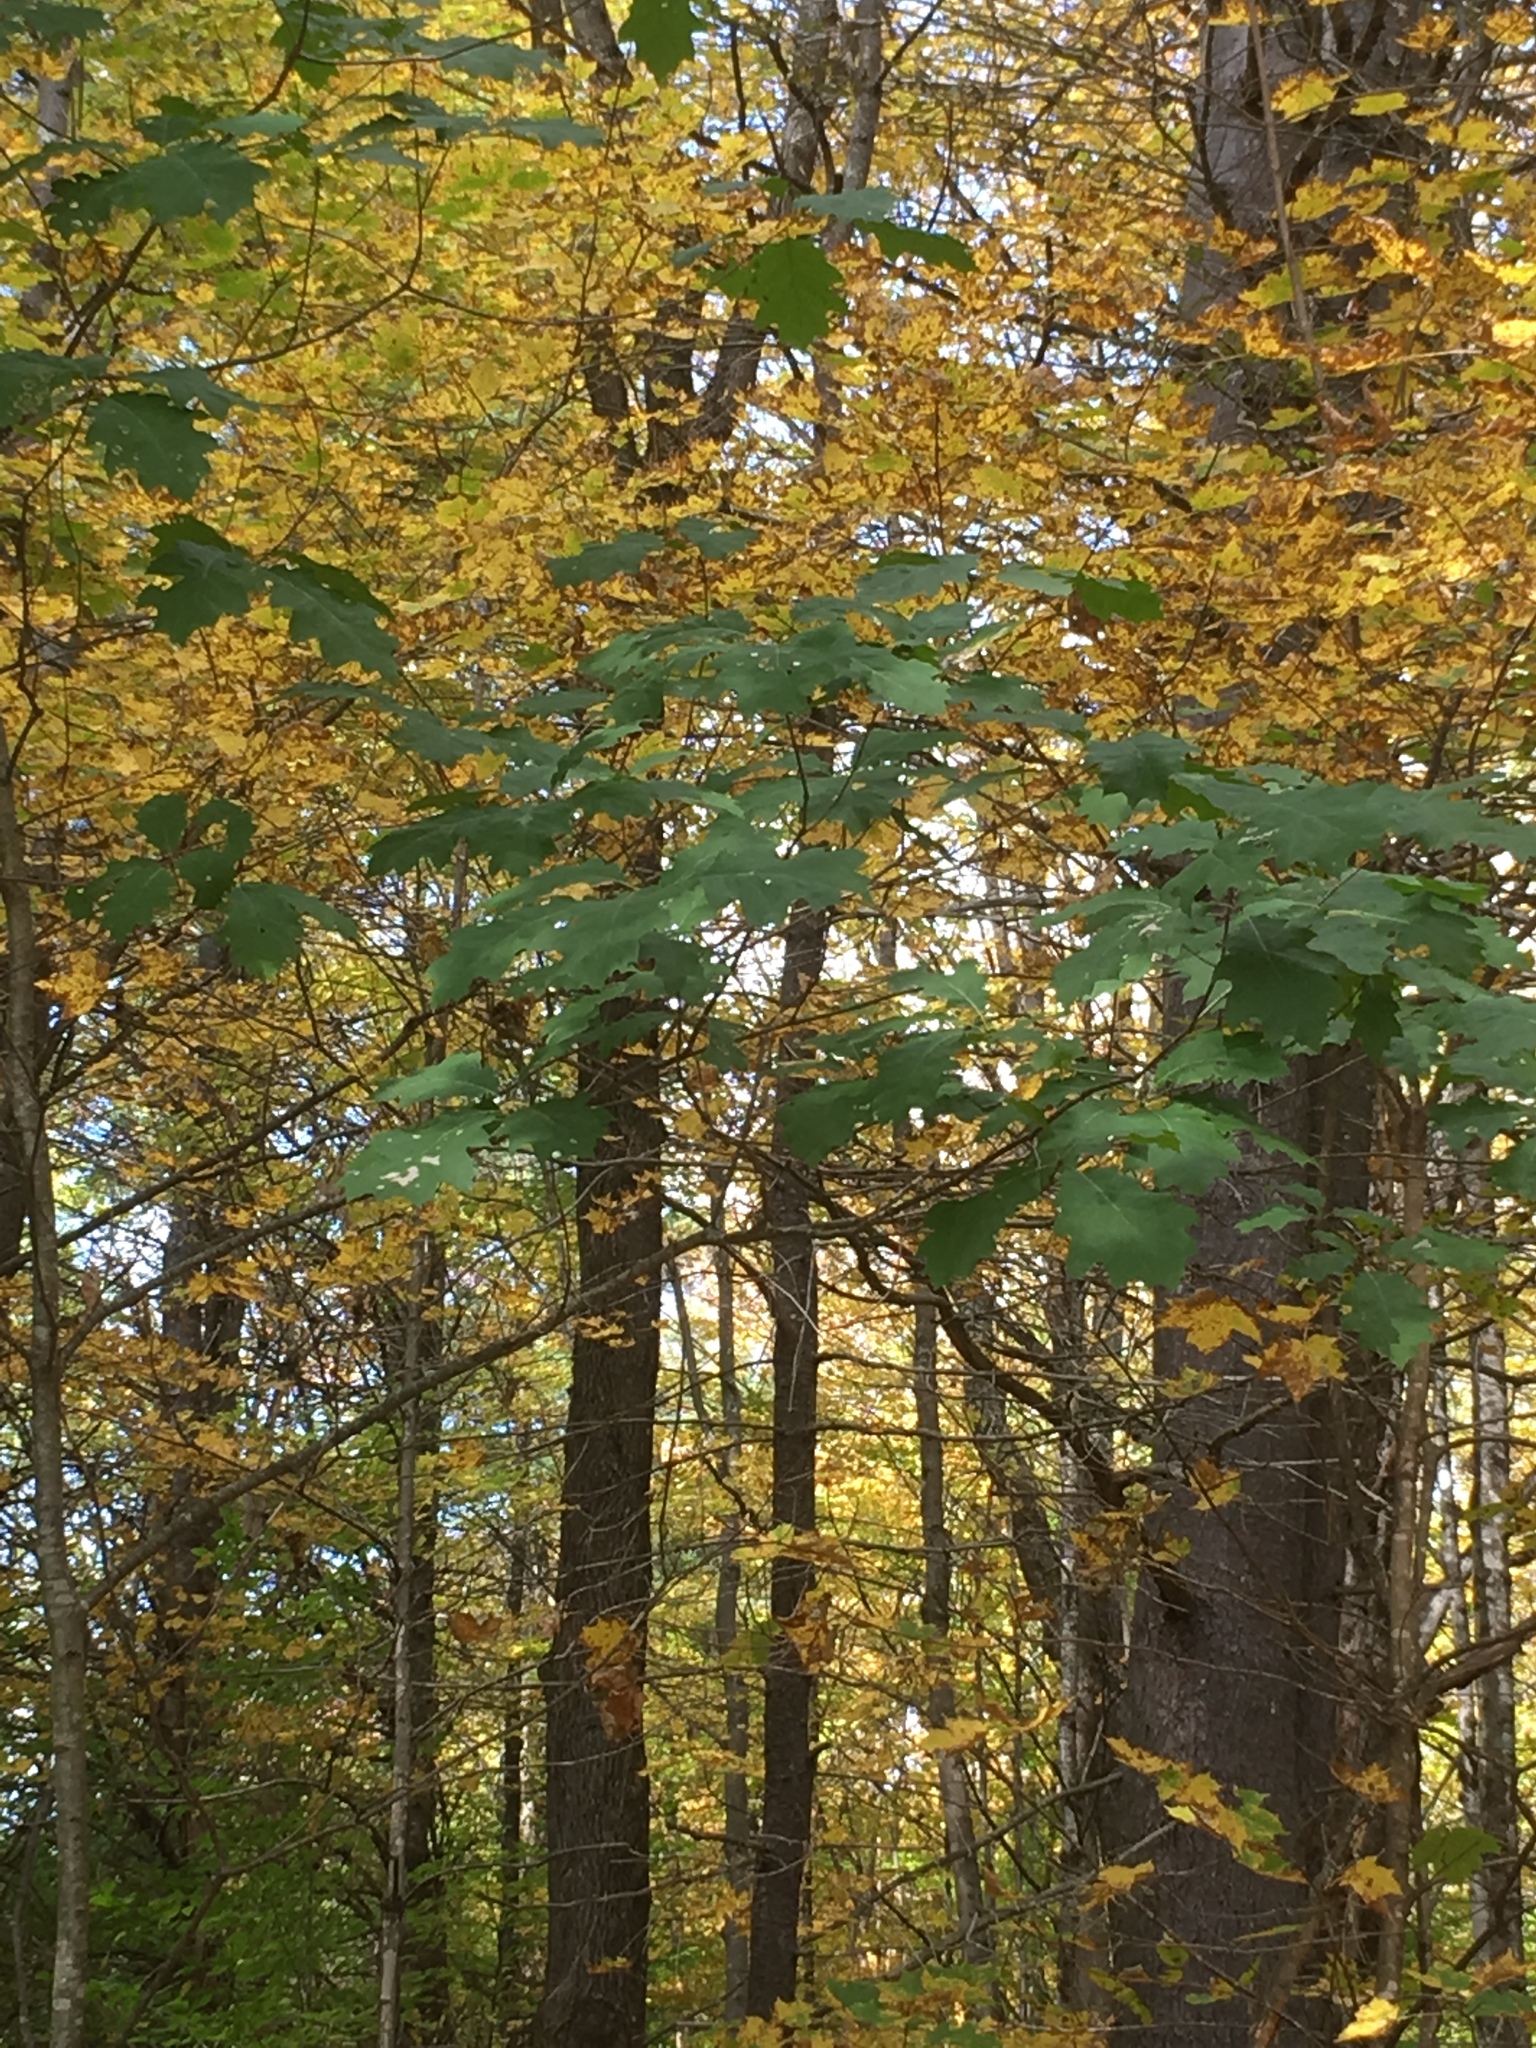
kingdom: Plantae
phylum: Tracheophyta
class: Magnoliopsida
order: Fagales
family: Fagaceae
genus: Quercus
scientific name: Quercus rubra
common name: Red oak
